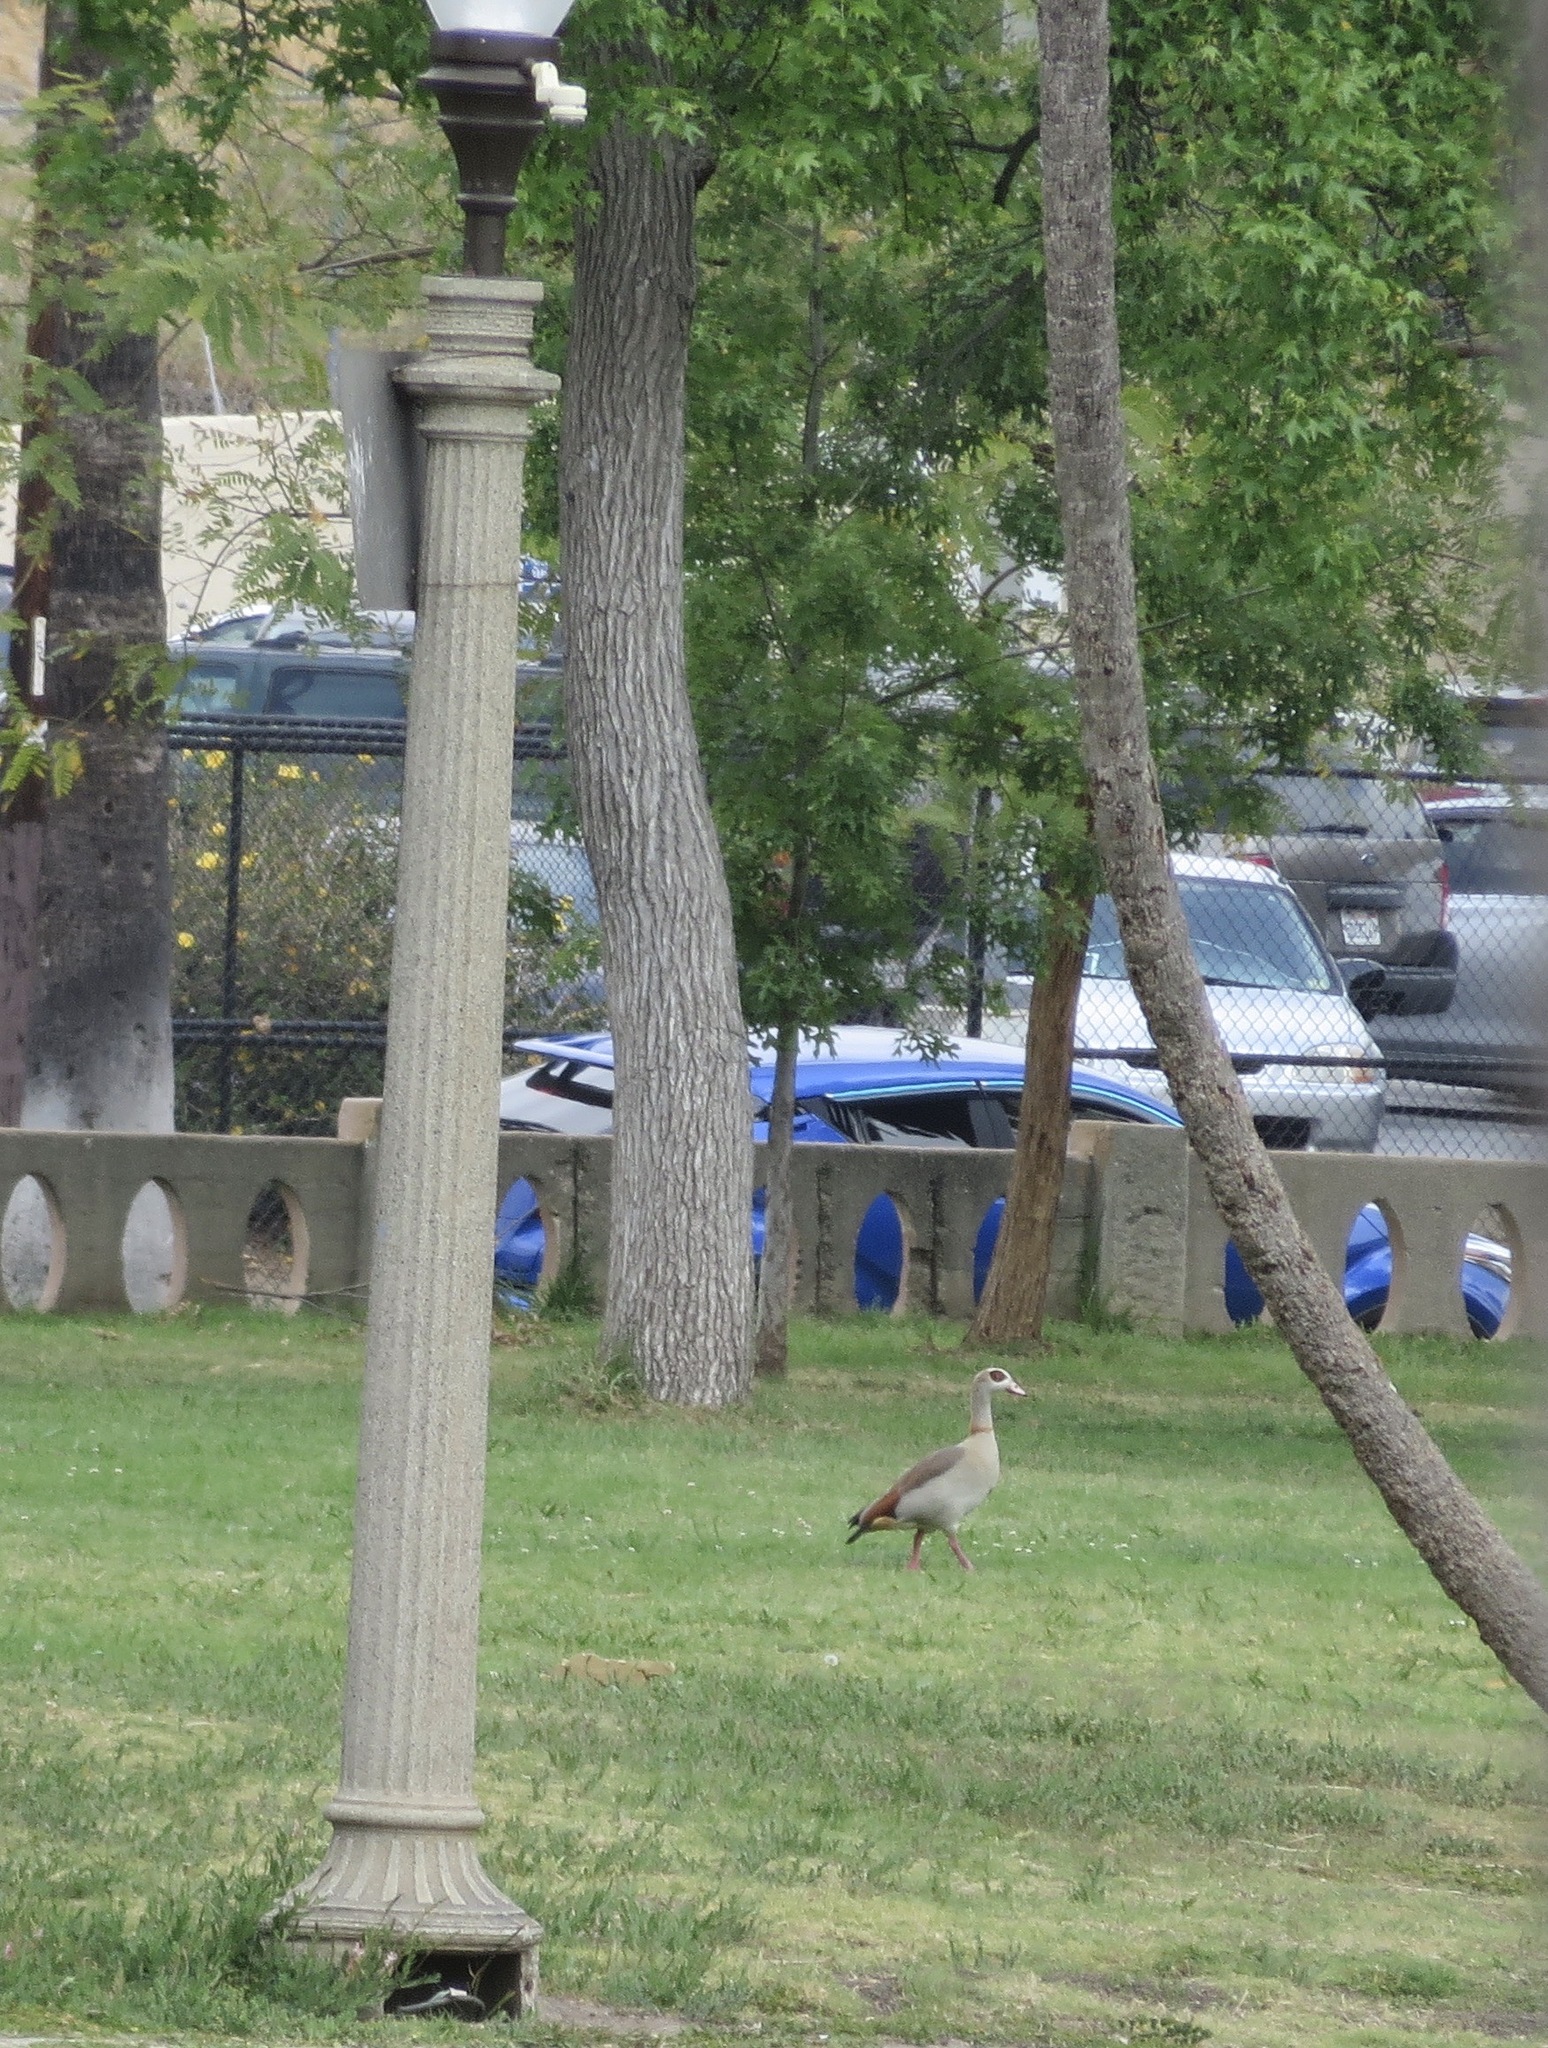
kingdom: Animalia
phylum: Chordata
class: Aves
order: Anseriformes
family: Anatidae
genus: Alopochen
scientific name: Alopochen aegyptiaca
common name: Egyptian goose
